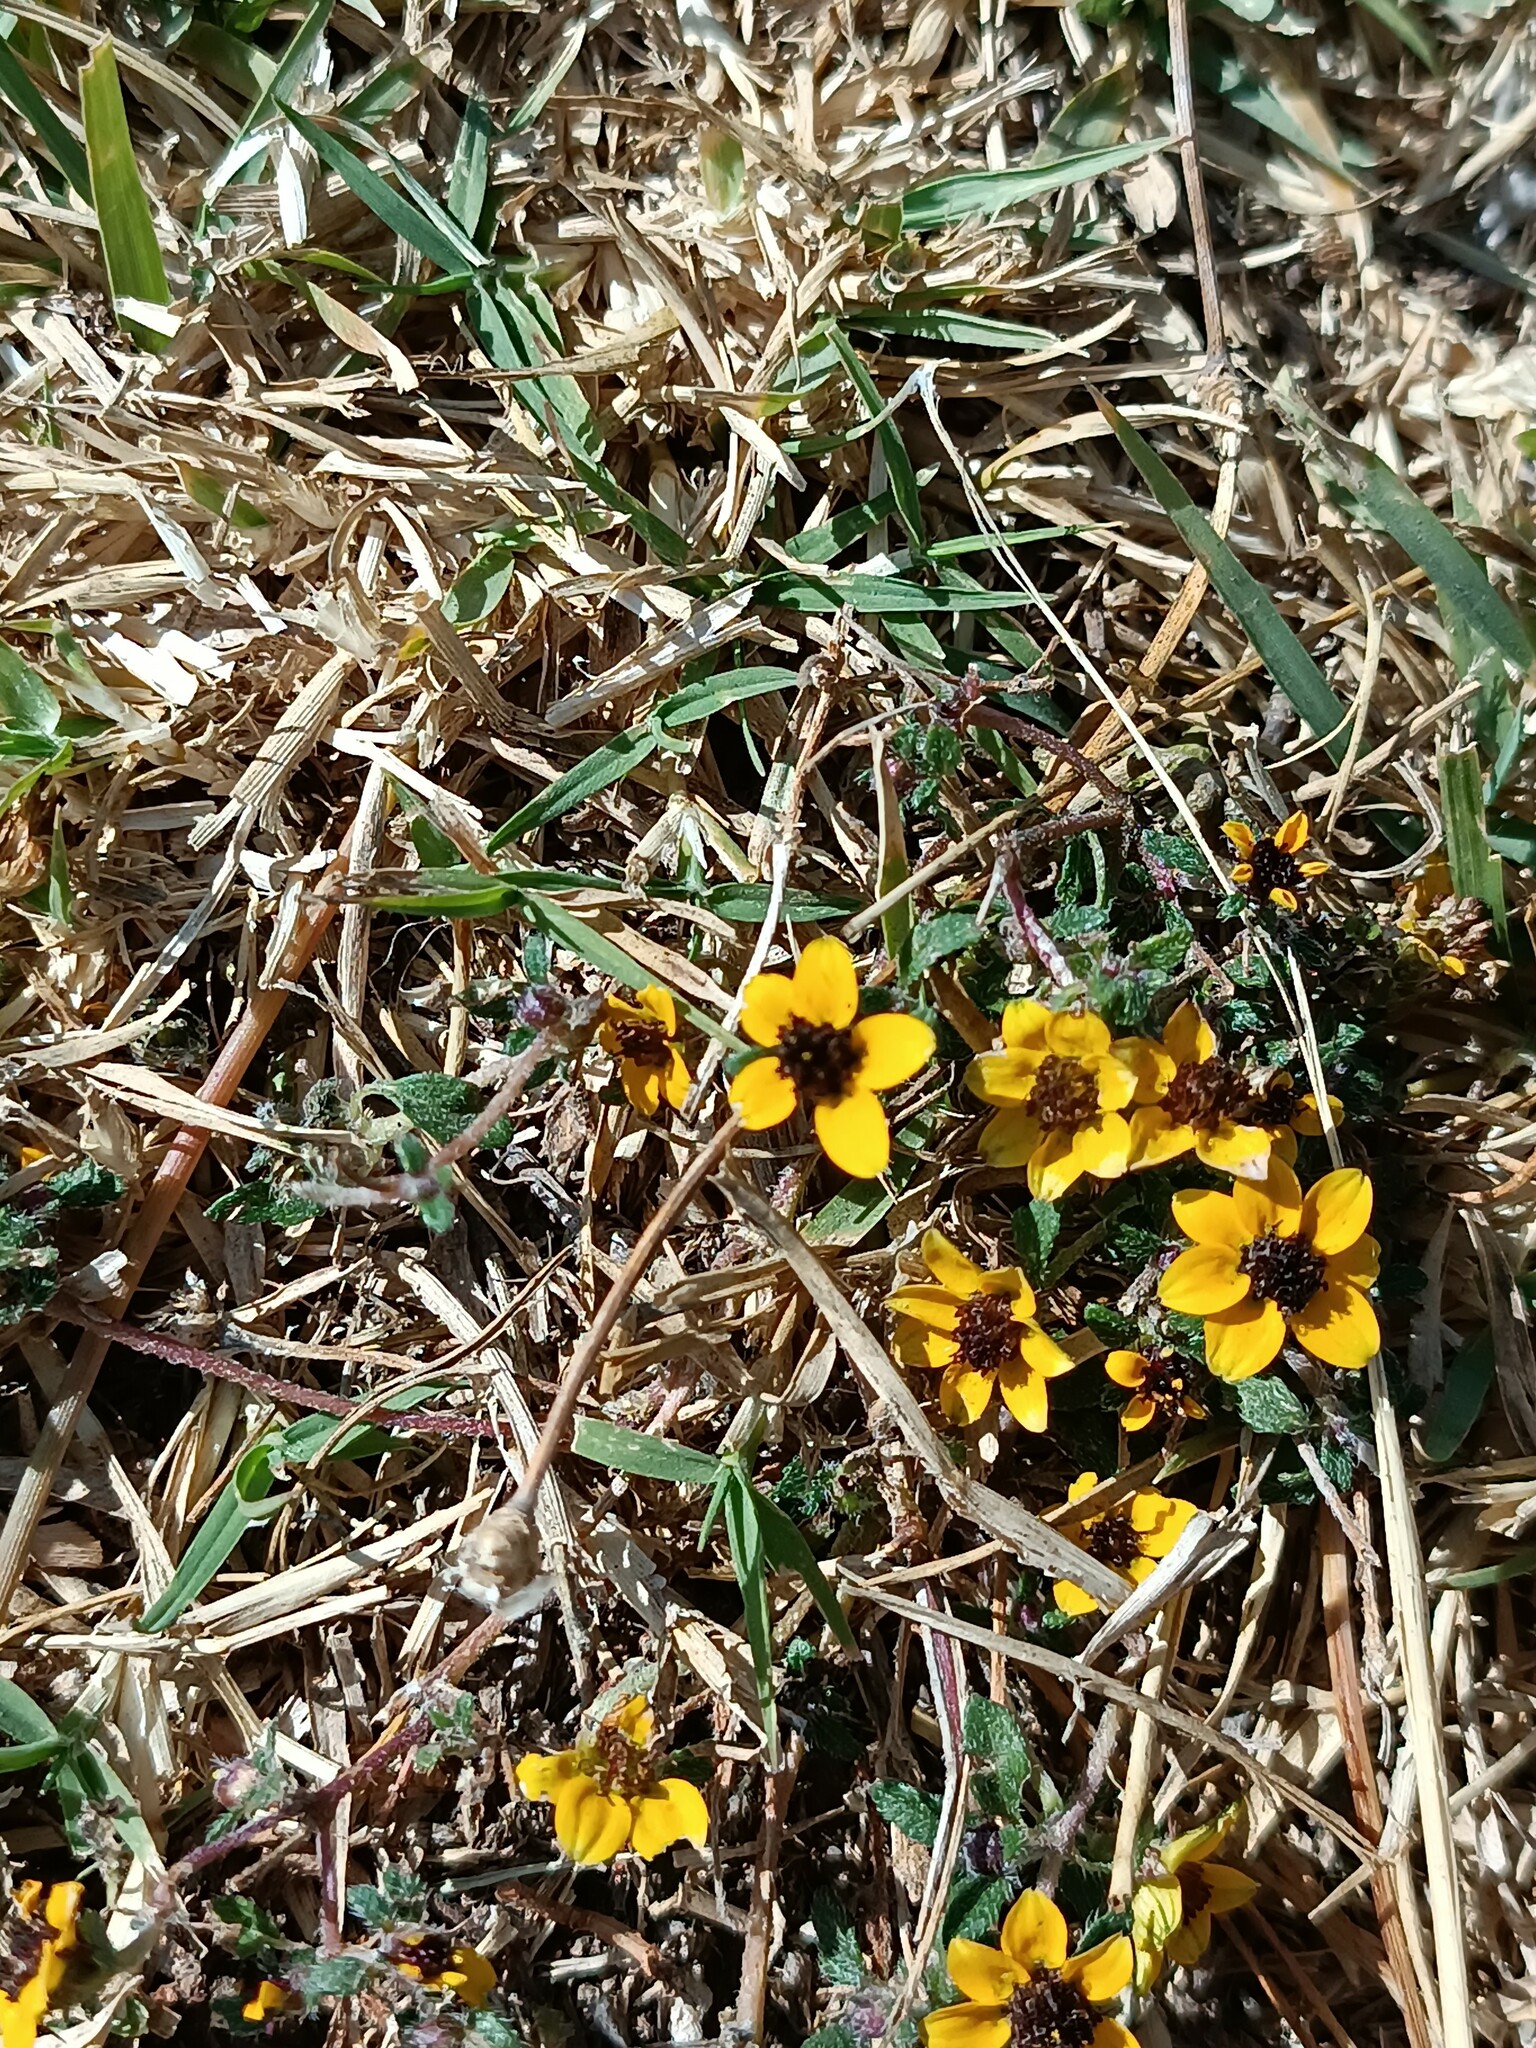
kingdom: Plantae
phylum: Tracheophyta
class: Magnoliopsida
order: Asterales
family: Asteraceae
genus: Sanvitalia
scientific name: Sanvitalia procumbens
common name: Mexican creeping zinnia
